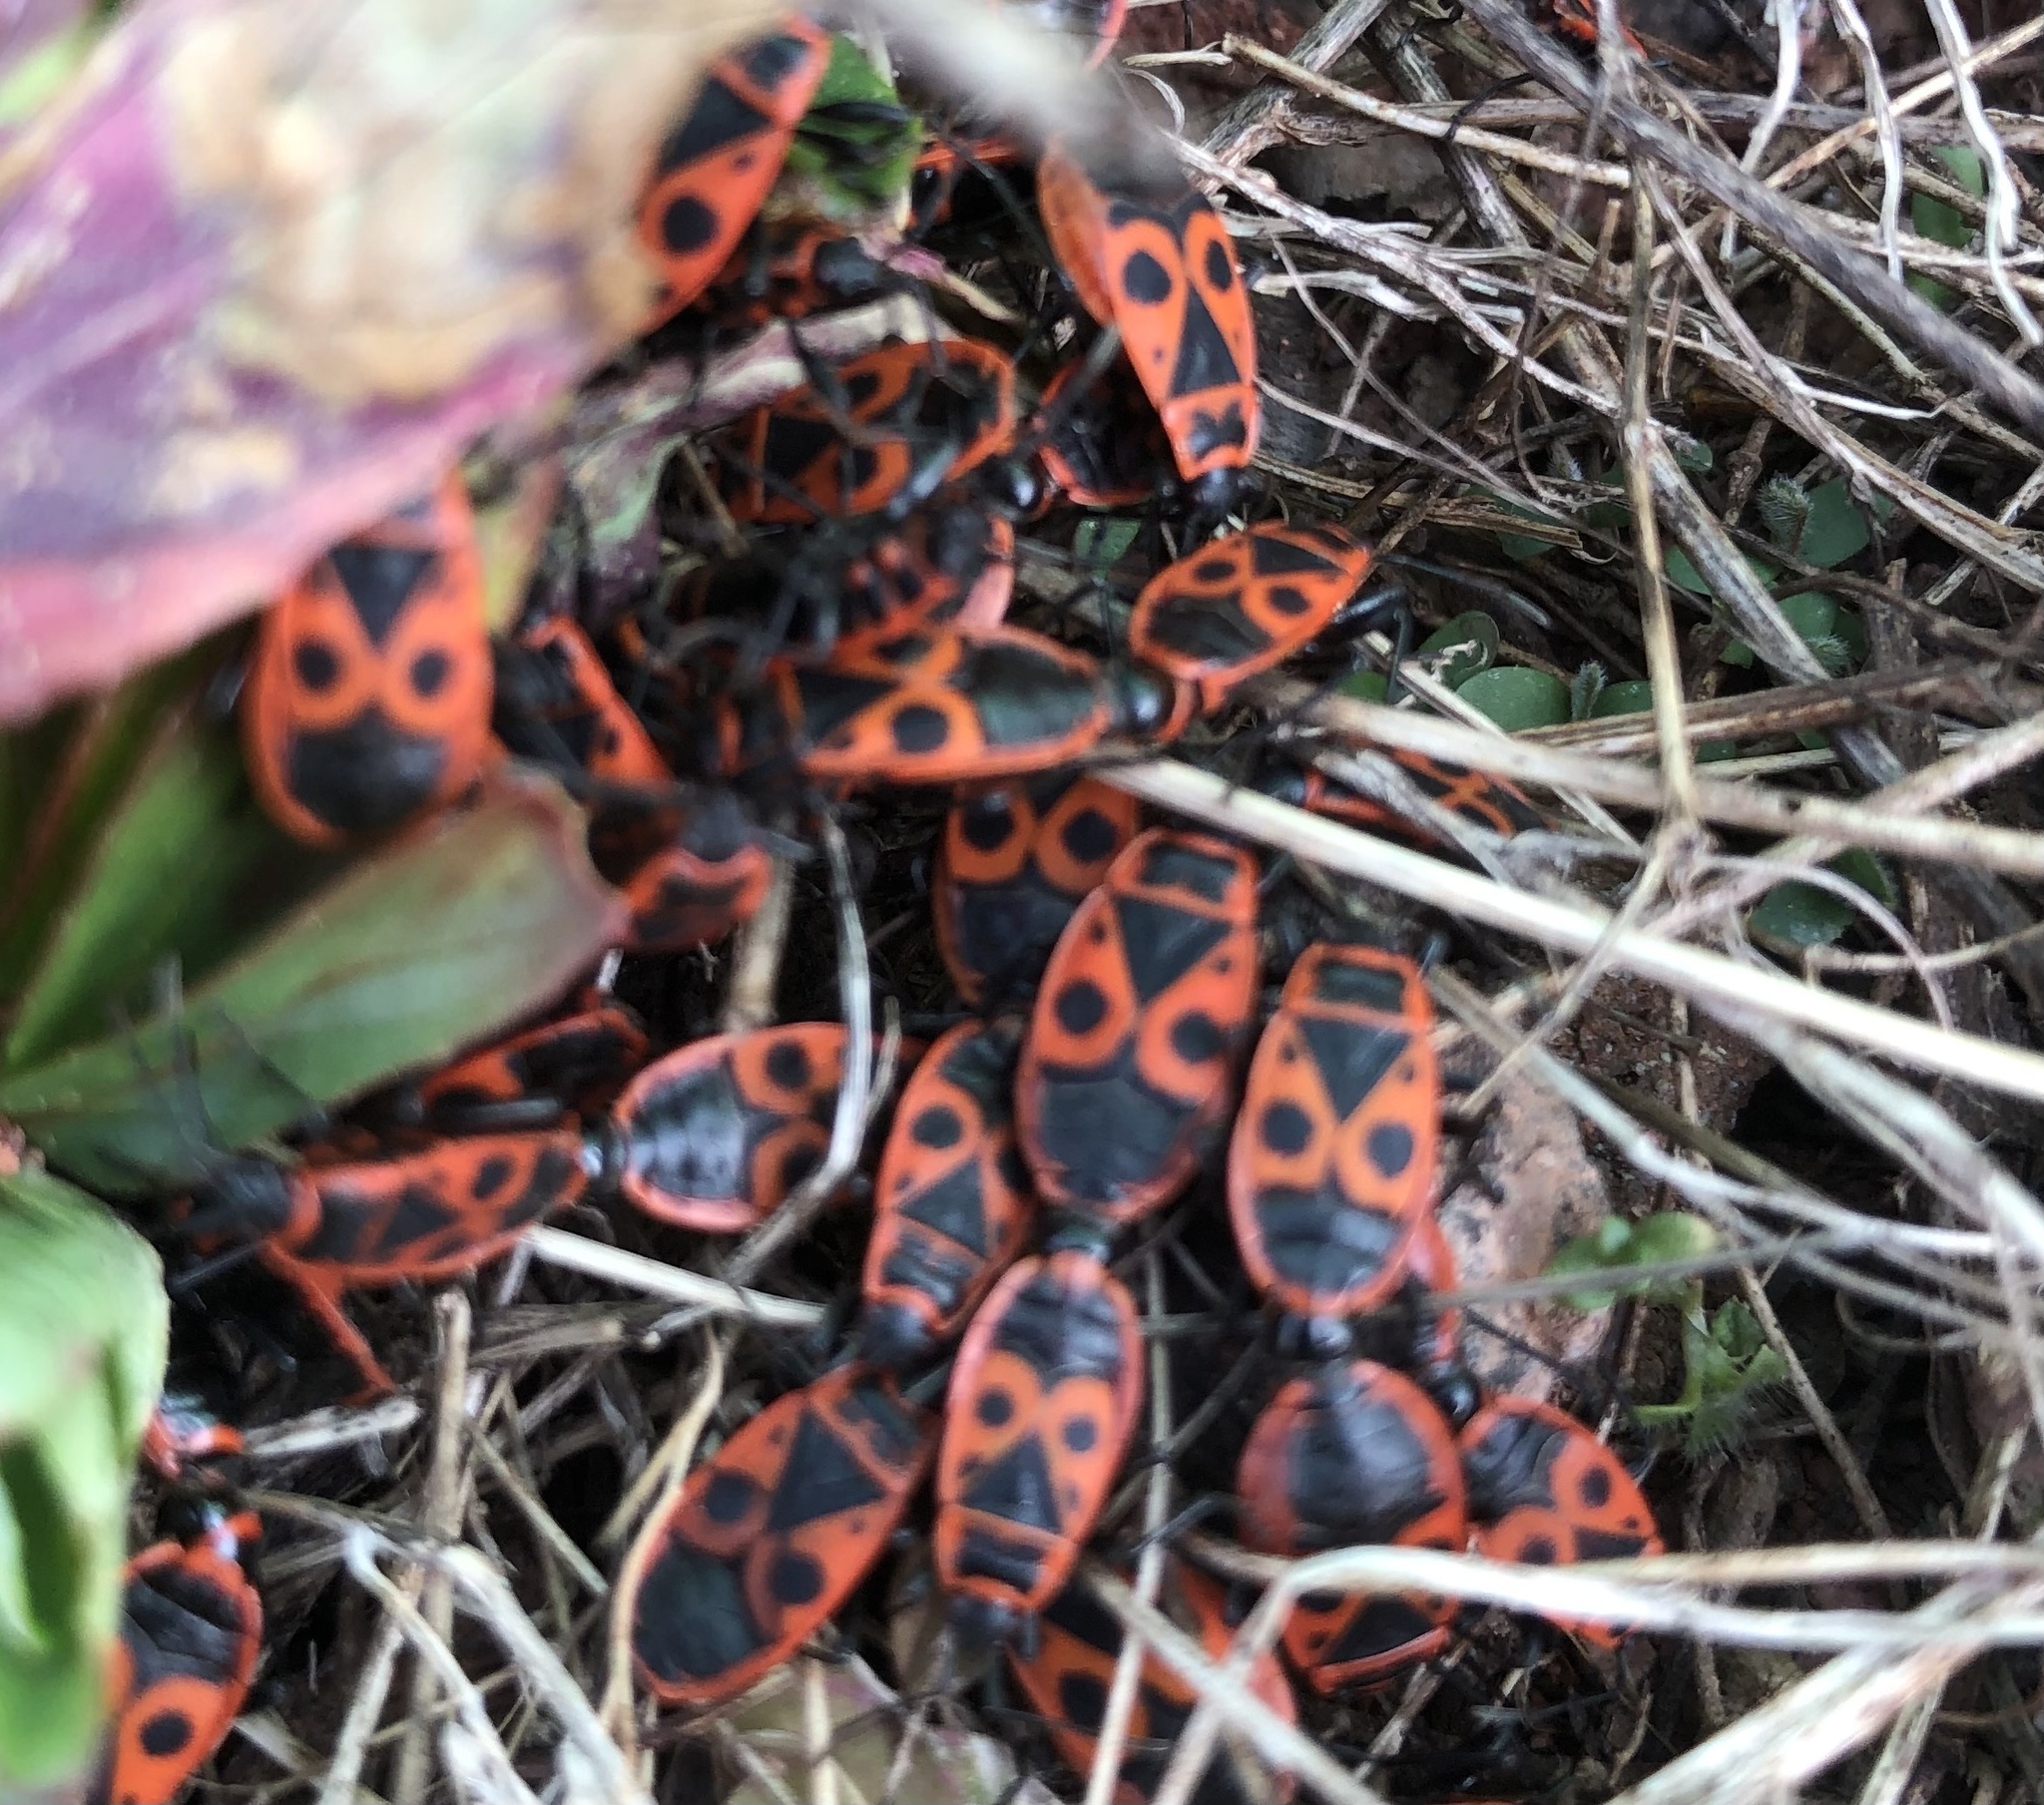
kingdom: Animalia
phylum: Arthropoda
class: Insecta
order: Hemiptera
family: Pyrrhocoridae
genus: Pyrrhocoris
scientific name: Pyrrhocoris apterus
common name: Firebug
